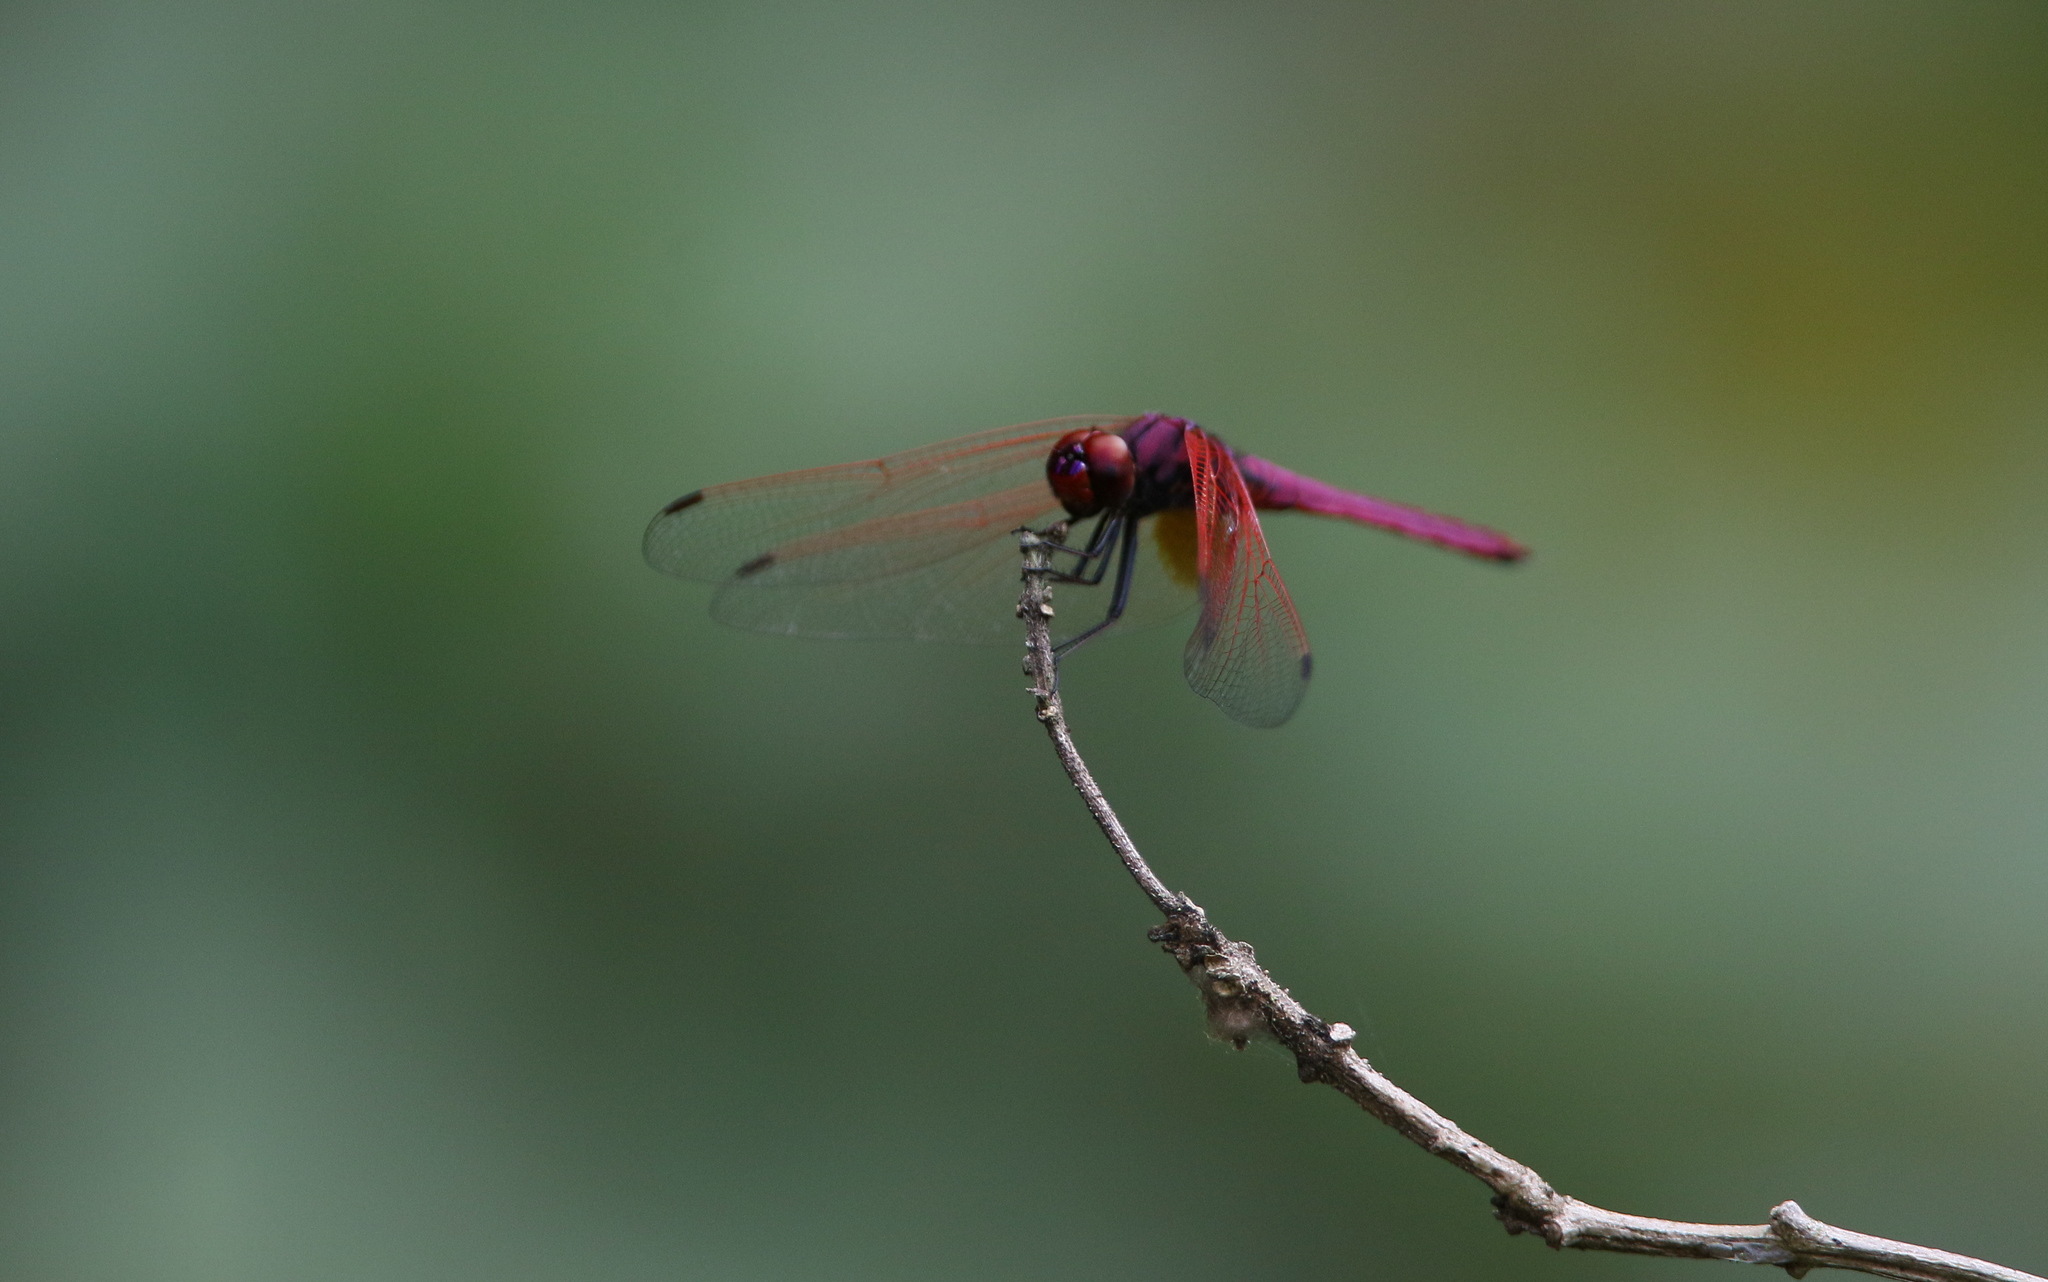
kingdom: Animalia
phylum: Arthropoda
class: Insecta
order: Odonata
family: Libellulidae
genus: Trithemis
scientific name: Trithemis aurora
